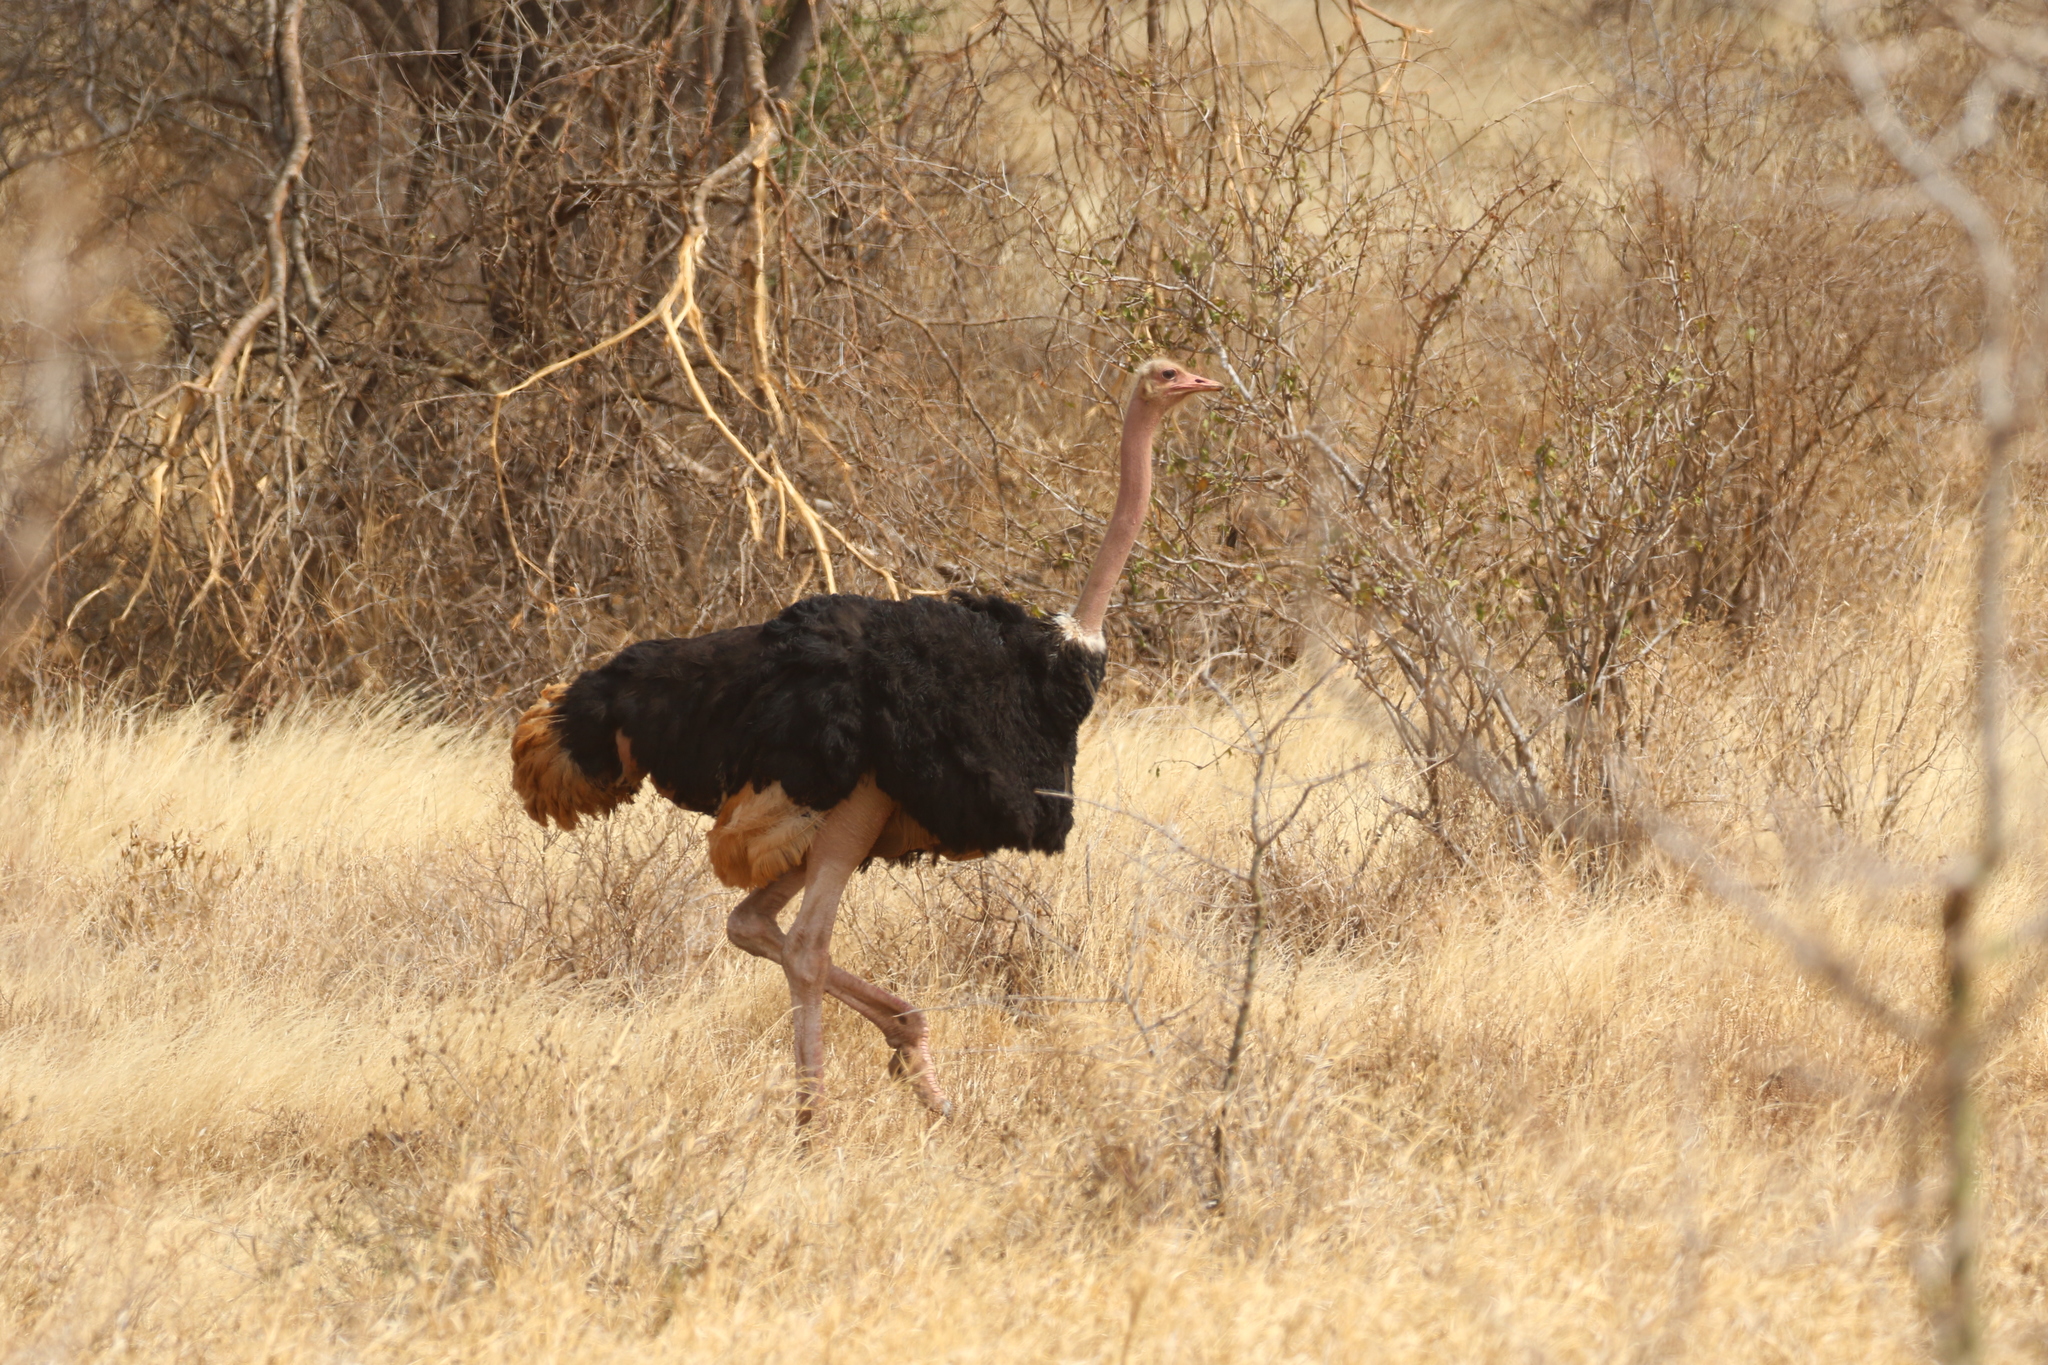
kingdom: Animalia
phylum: Chordata
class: Aves
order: Struthioniformes
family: Struthionidae
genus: Struthio
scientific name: Struthio camelus
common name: Common ostrich
